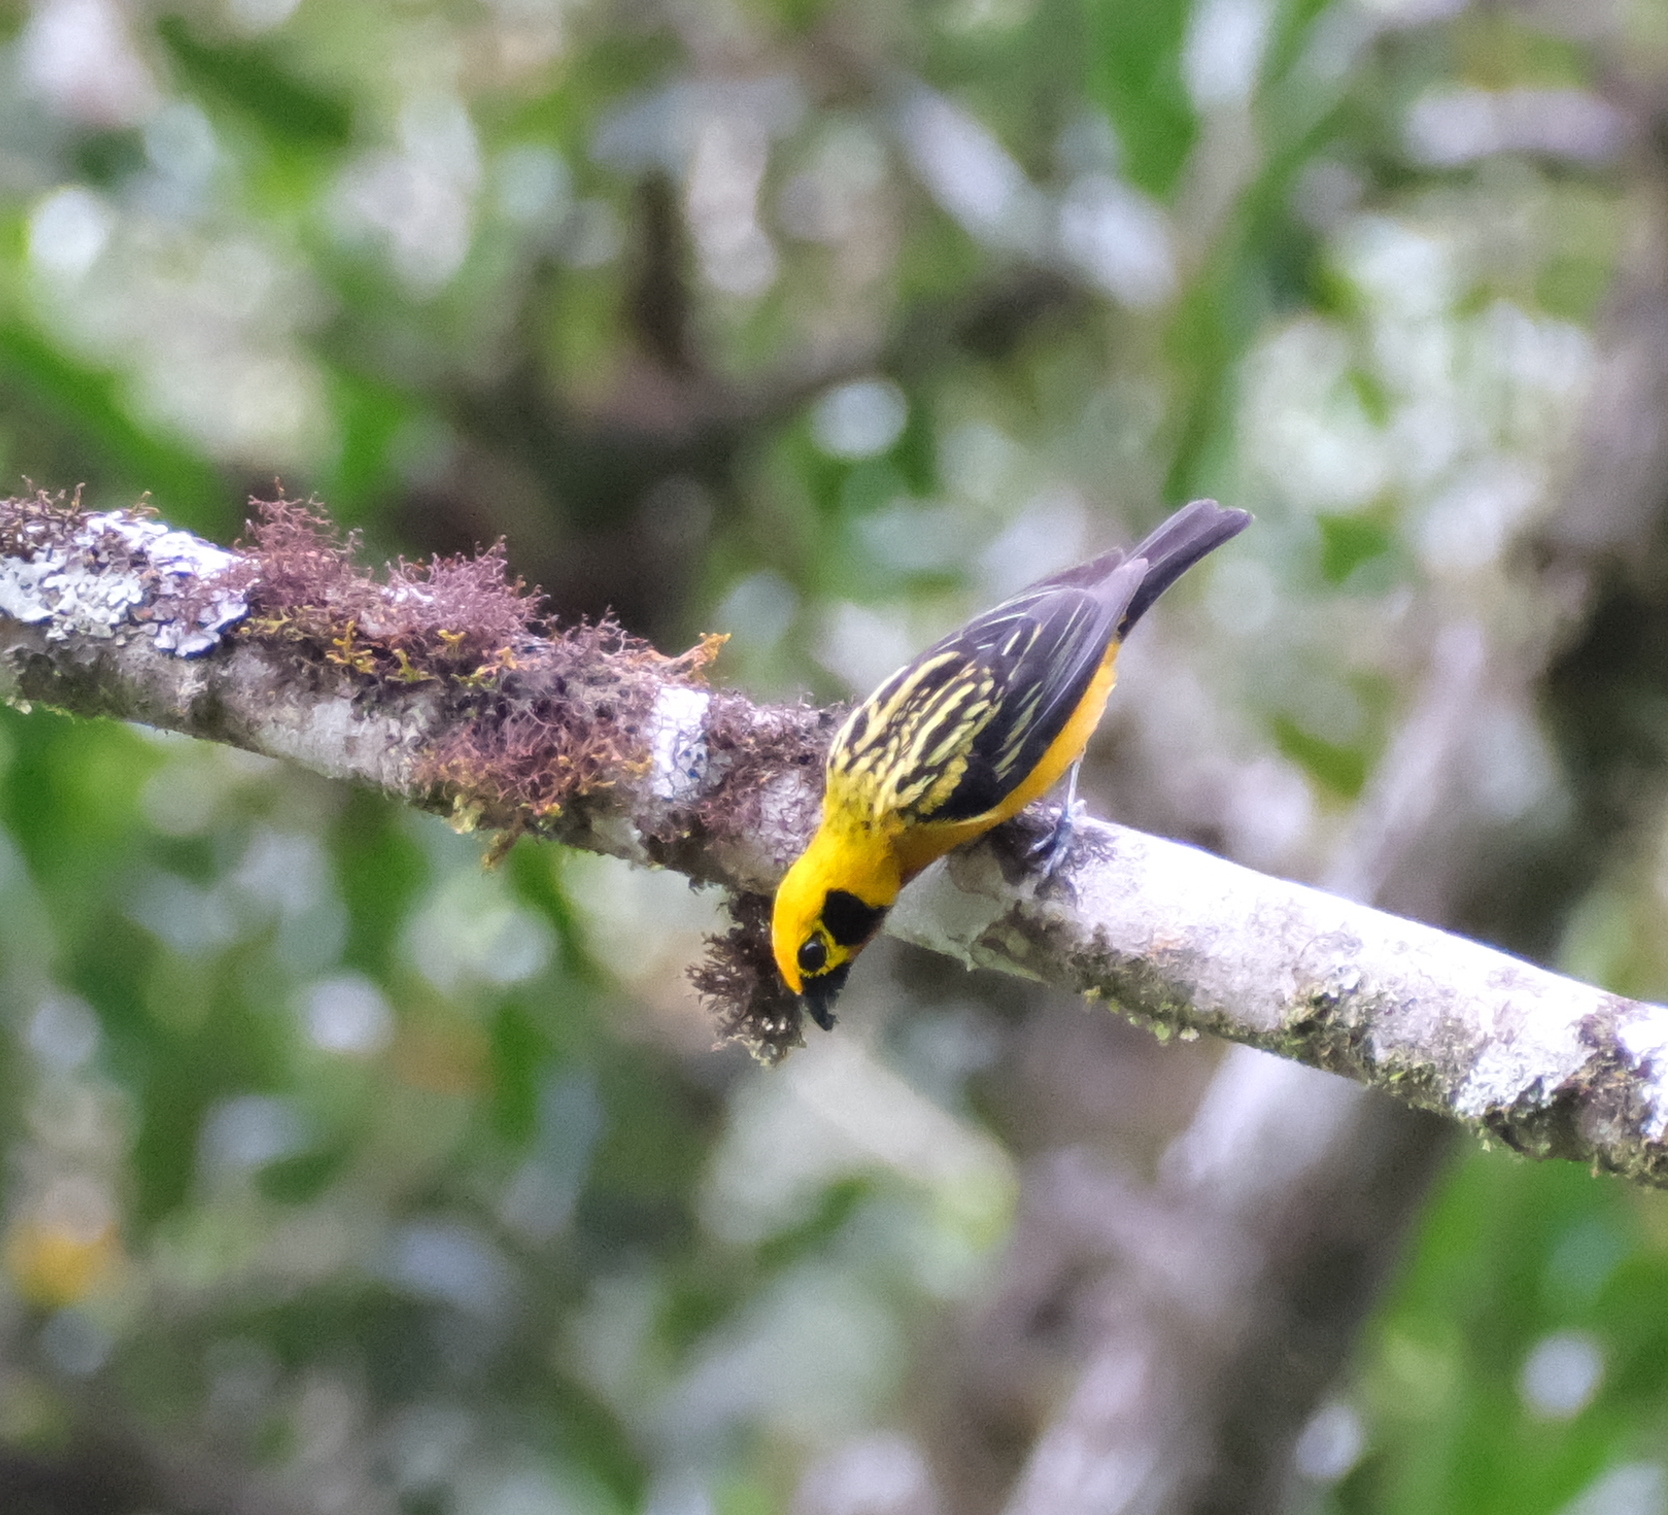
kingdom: Animalia
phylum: Chordata
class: Aves
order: Passeriformes
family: Thraupidae
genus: Tangara
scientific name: Tangara arthus
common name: Golden tanager
